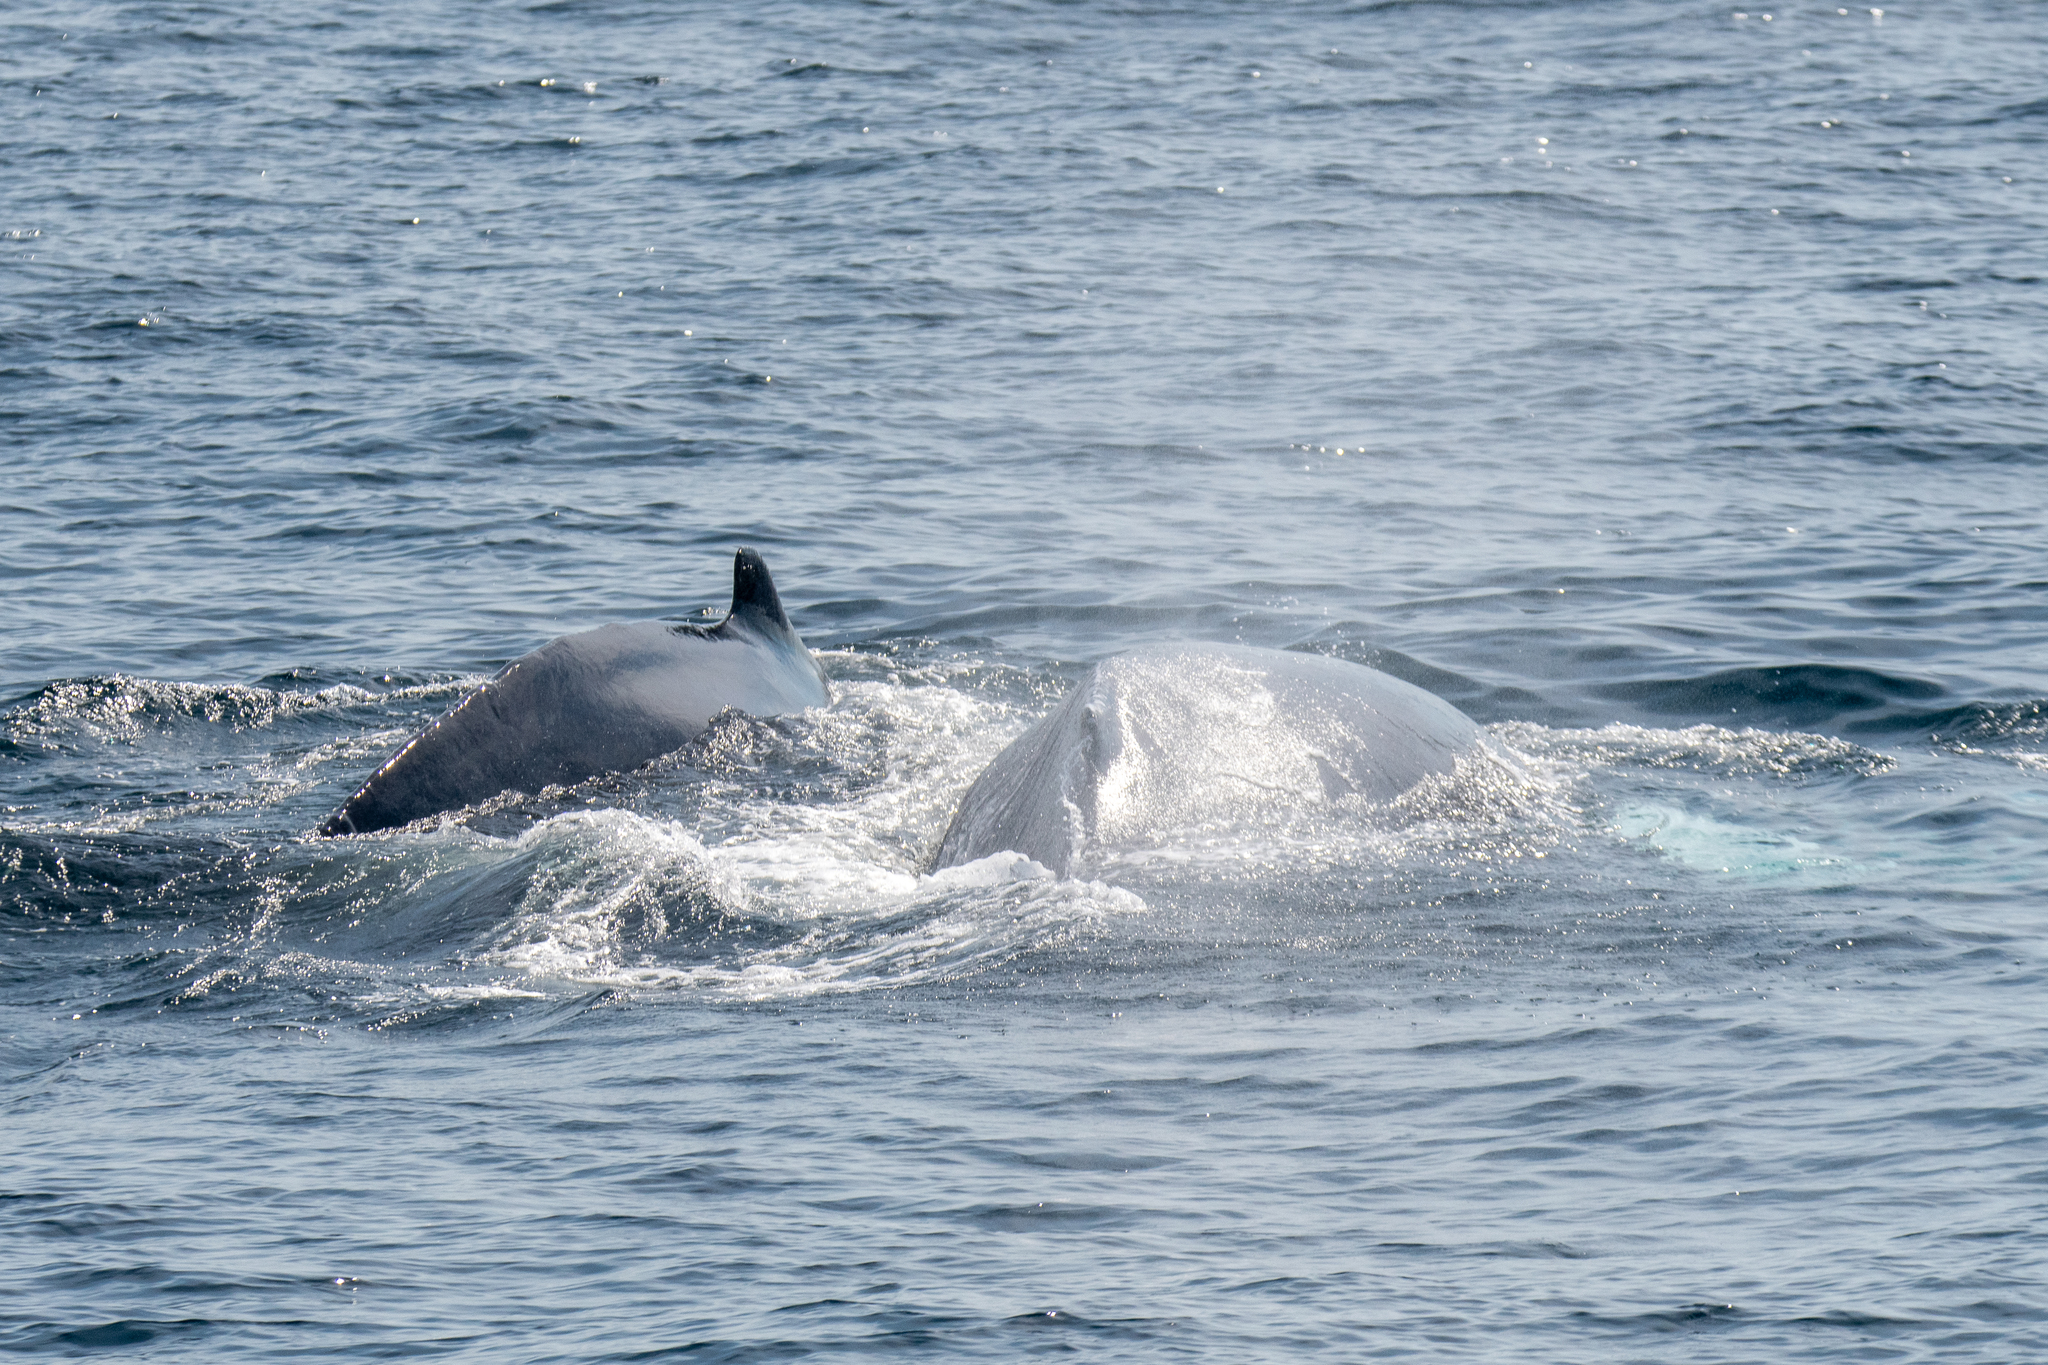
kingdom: Animalia
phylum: Chordata
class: Mammalia
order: Cetacea
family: Balaenopteridae
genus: Megaptera
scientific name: Megaptera novaeangliae
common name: Humpback whale
